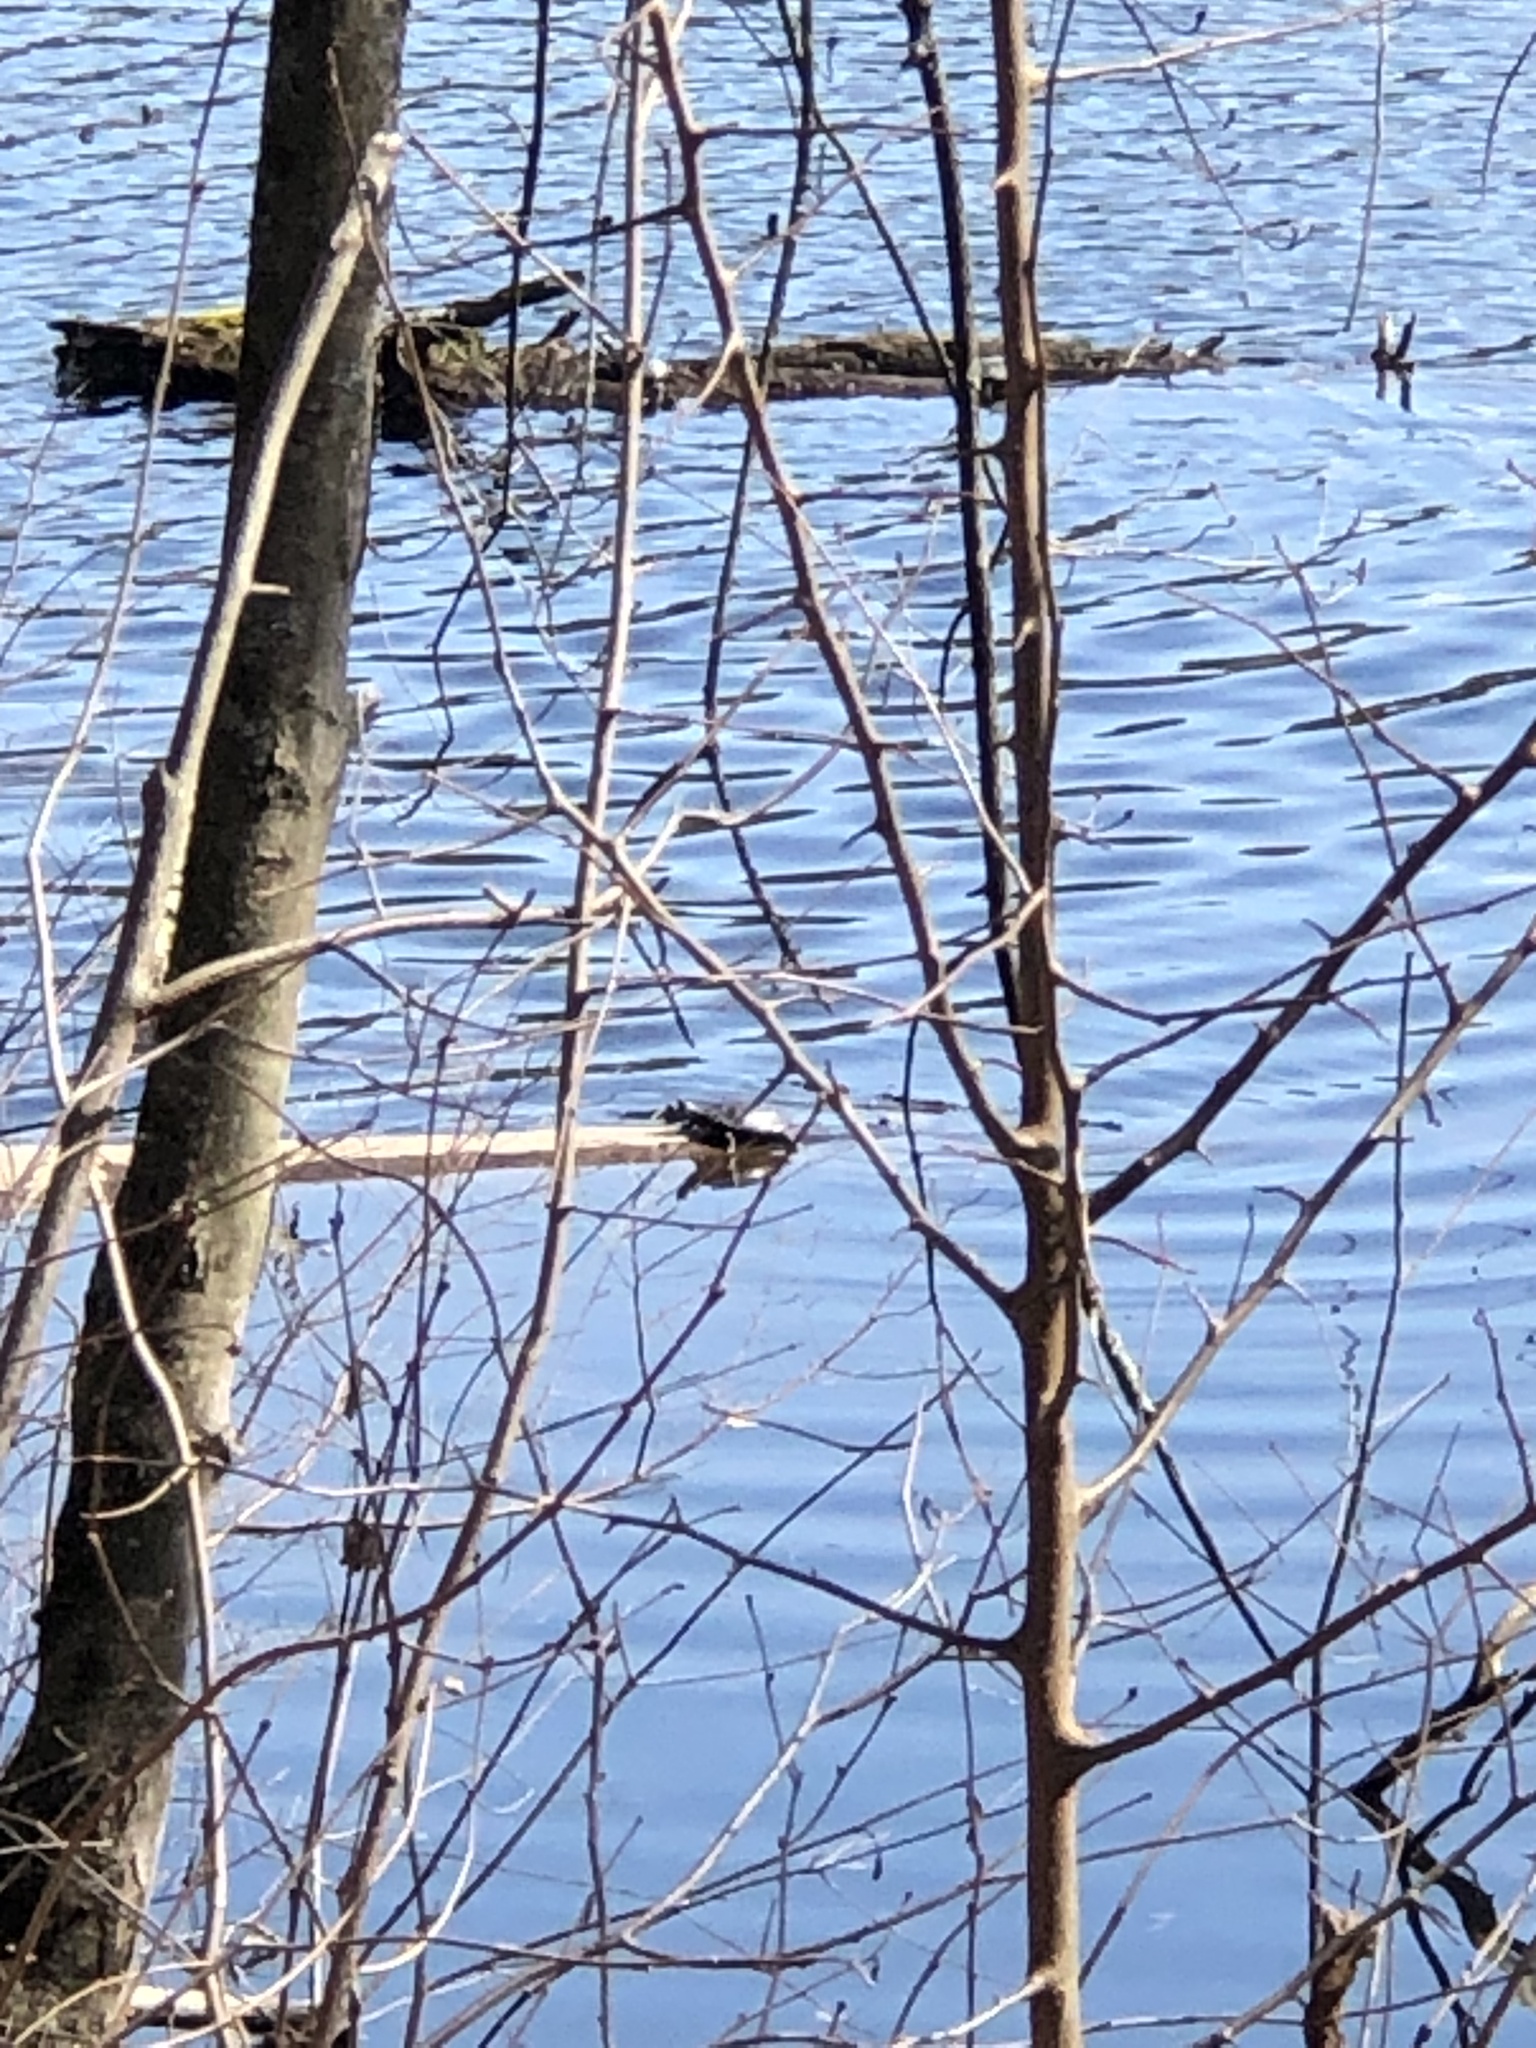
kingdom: Animalia
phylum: Chordata
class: Testudines
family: Emydidae
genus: Chrysemys
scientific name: Chrysemys picta
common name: Painted turtle
